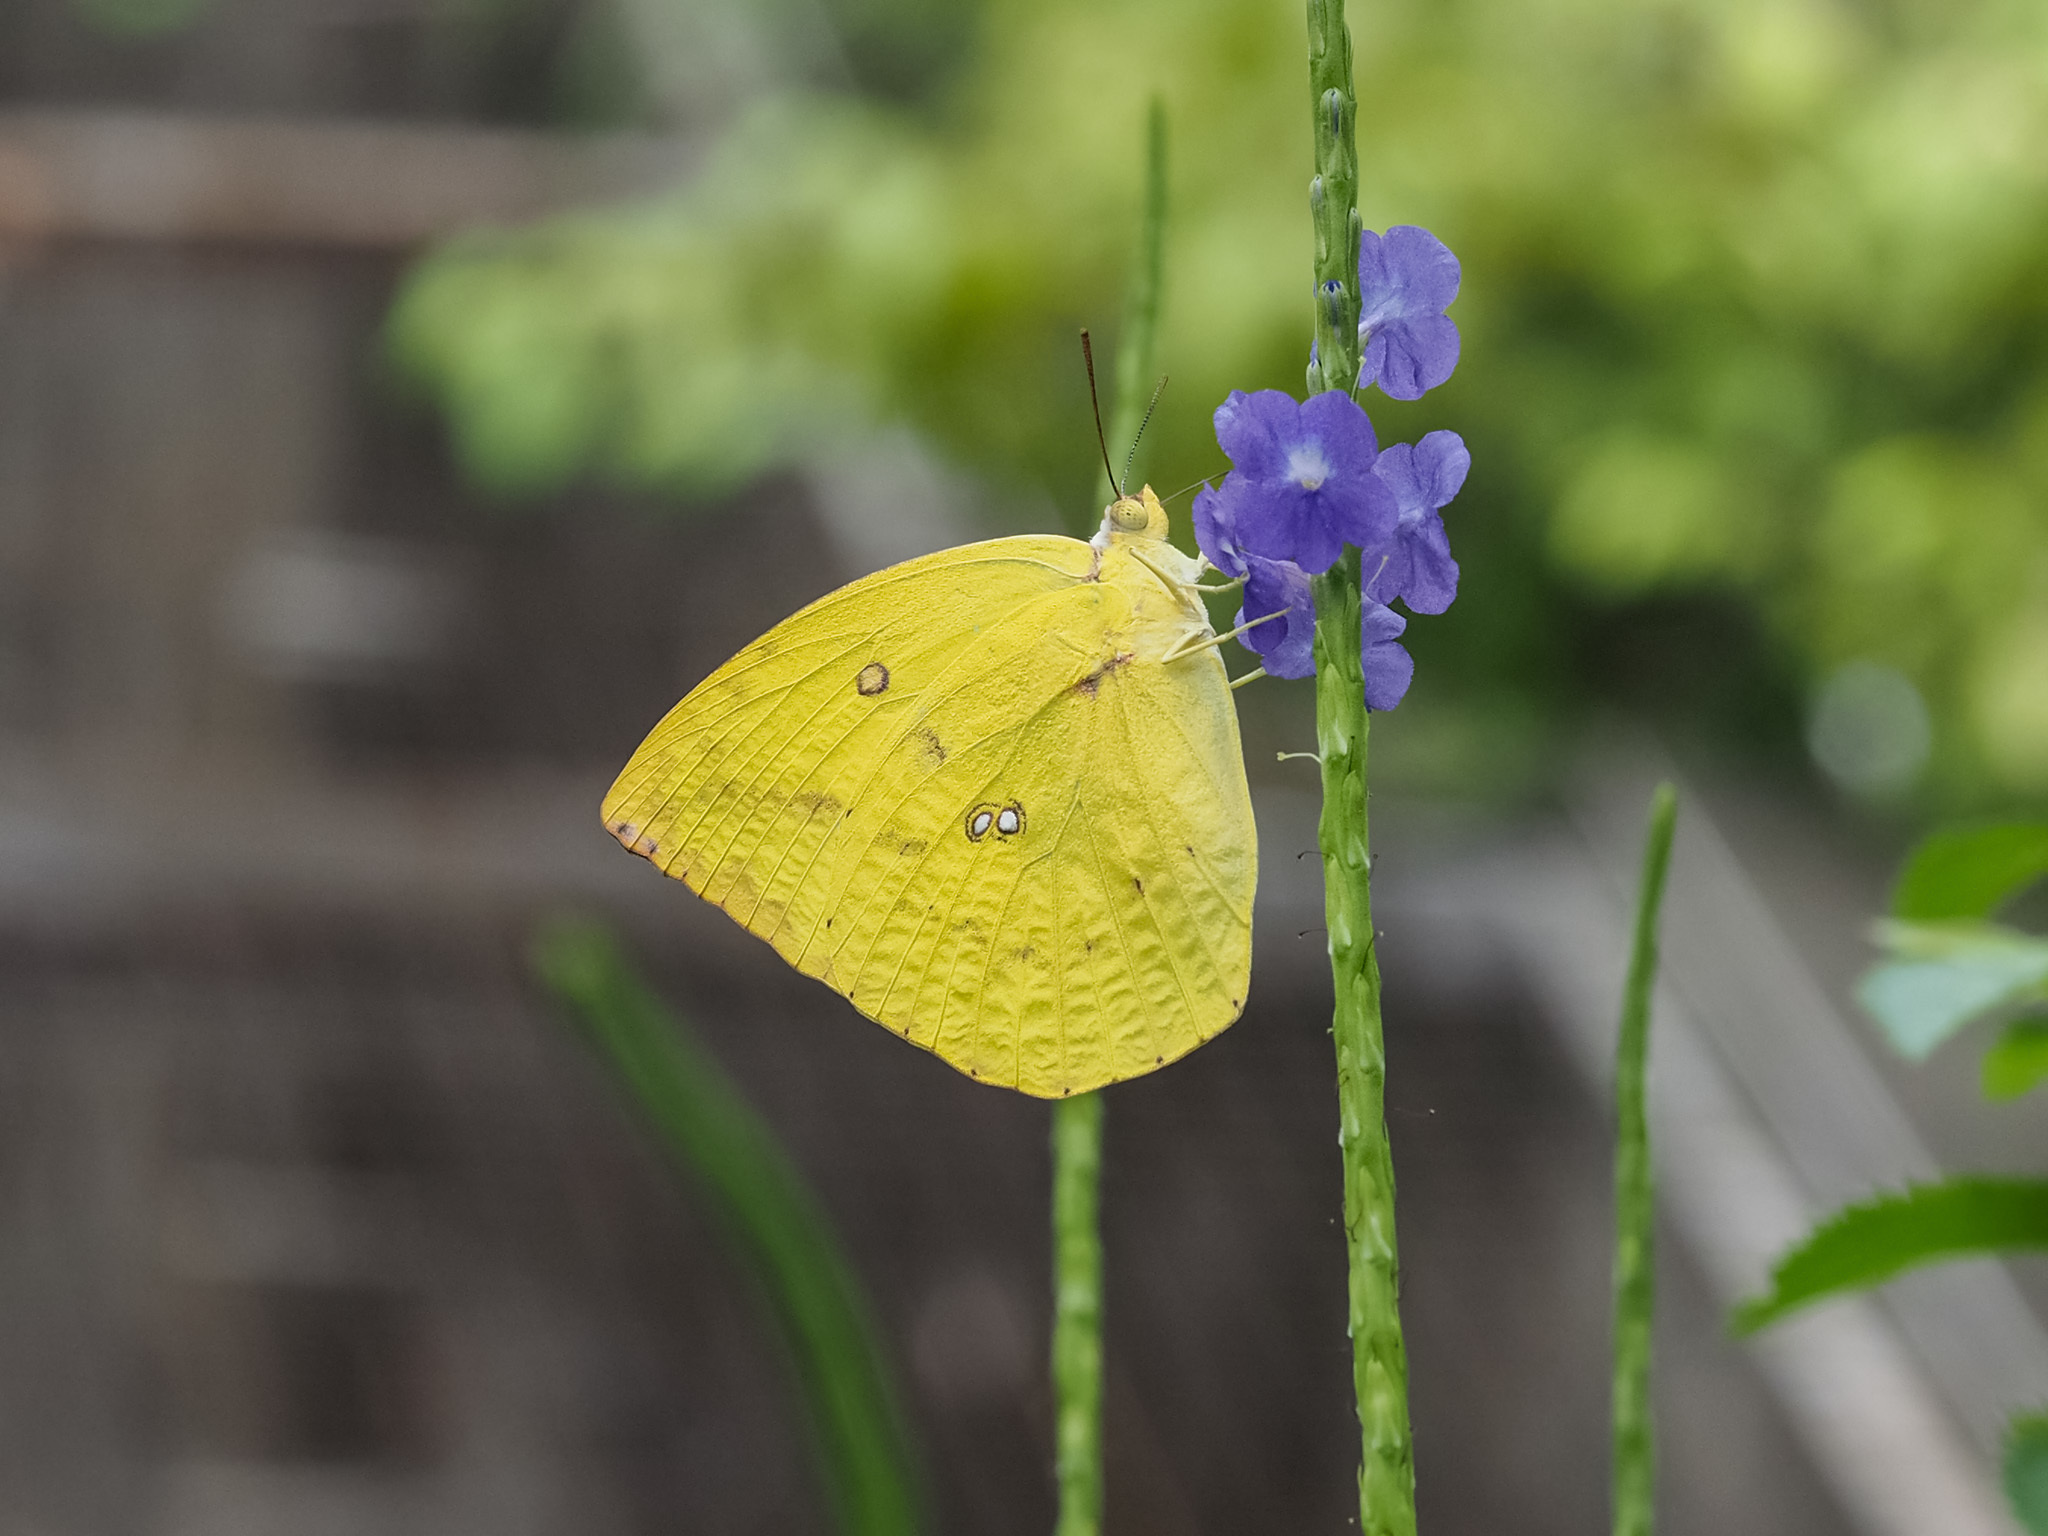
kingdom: Animalia
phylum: Arthropoda
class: Insecta
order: Lepidoptera
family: Pieridae
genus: Catopsilia
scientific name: Catopsilia pomona
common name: Common emigrant
